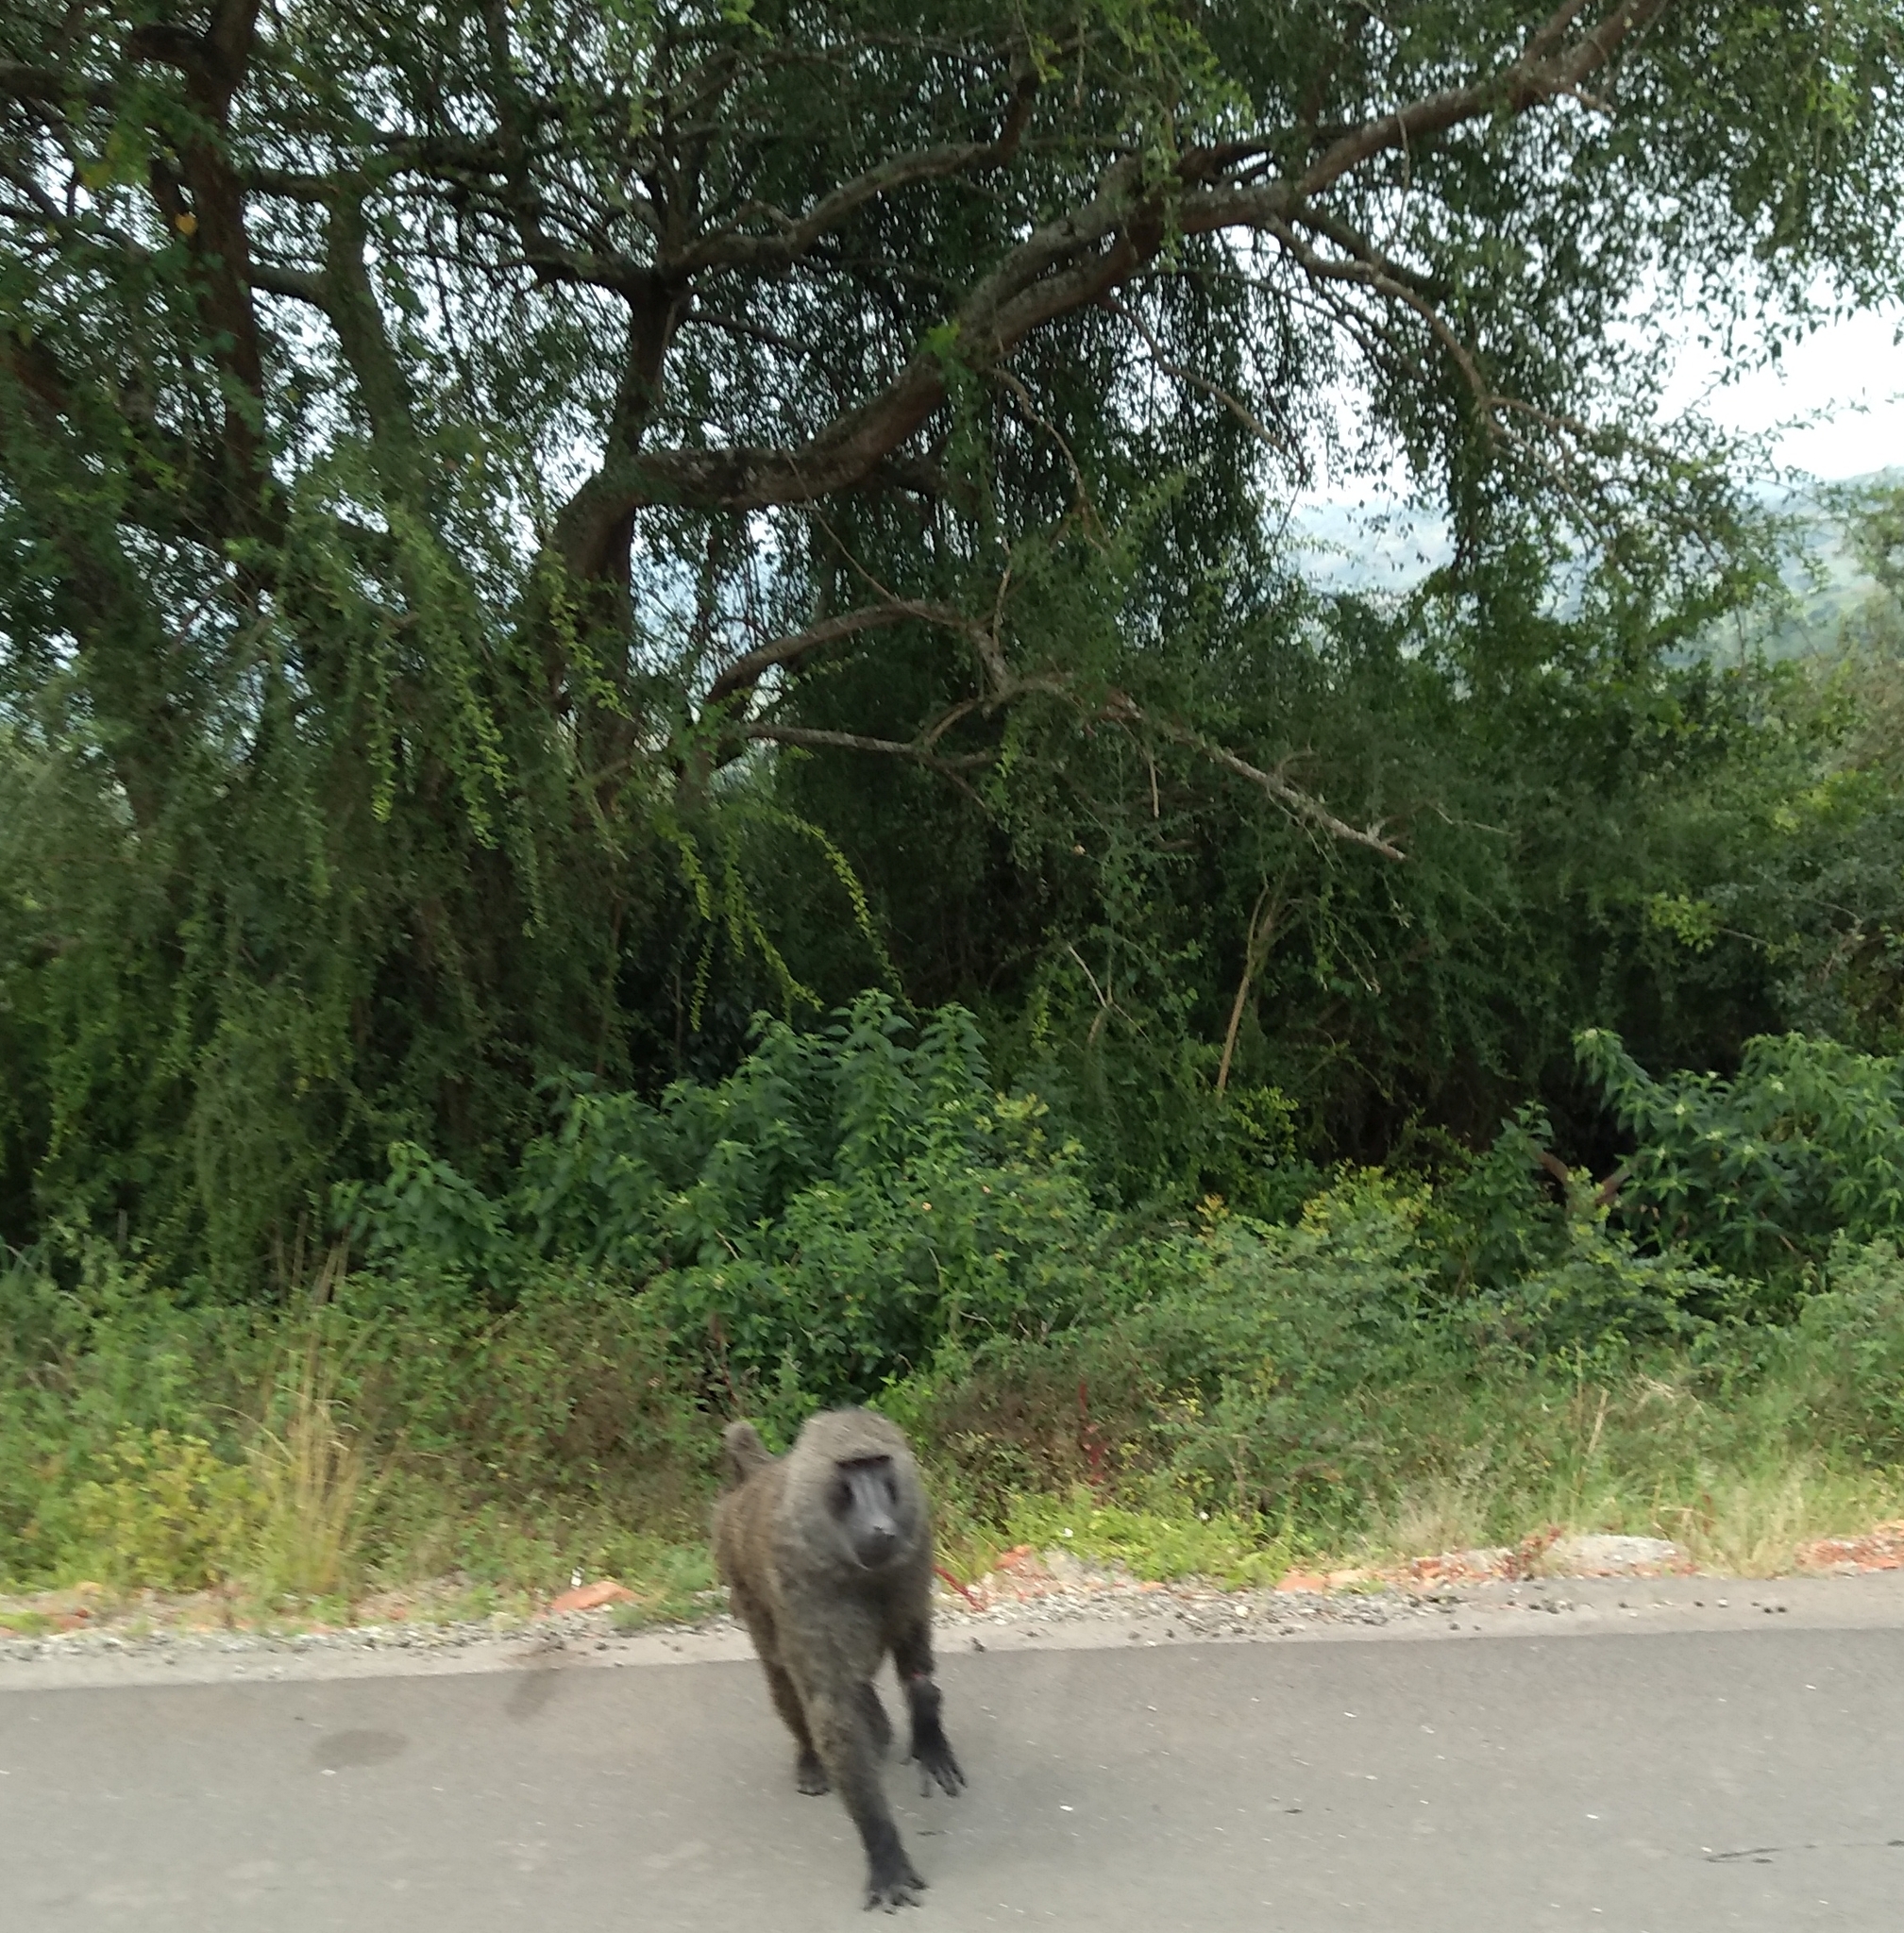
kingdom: Animalia
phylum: Chordata
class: Mammalia
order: Primates
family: Cercopithecidae
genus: Papio
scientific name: Papio anubis
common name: Olive baboon
